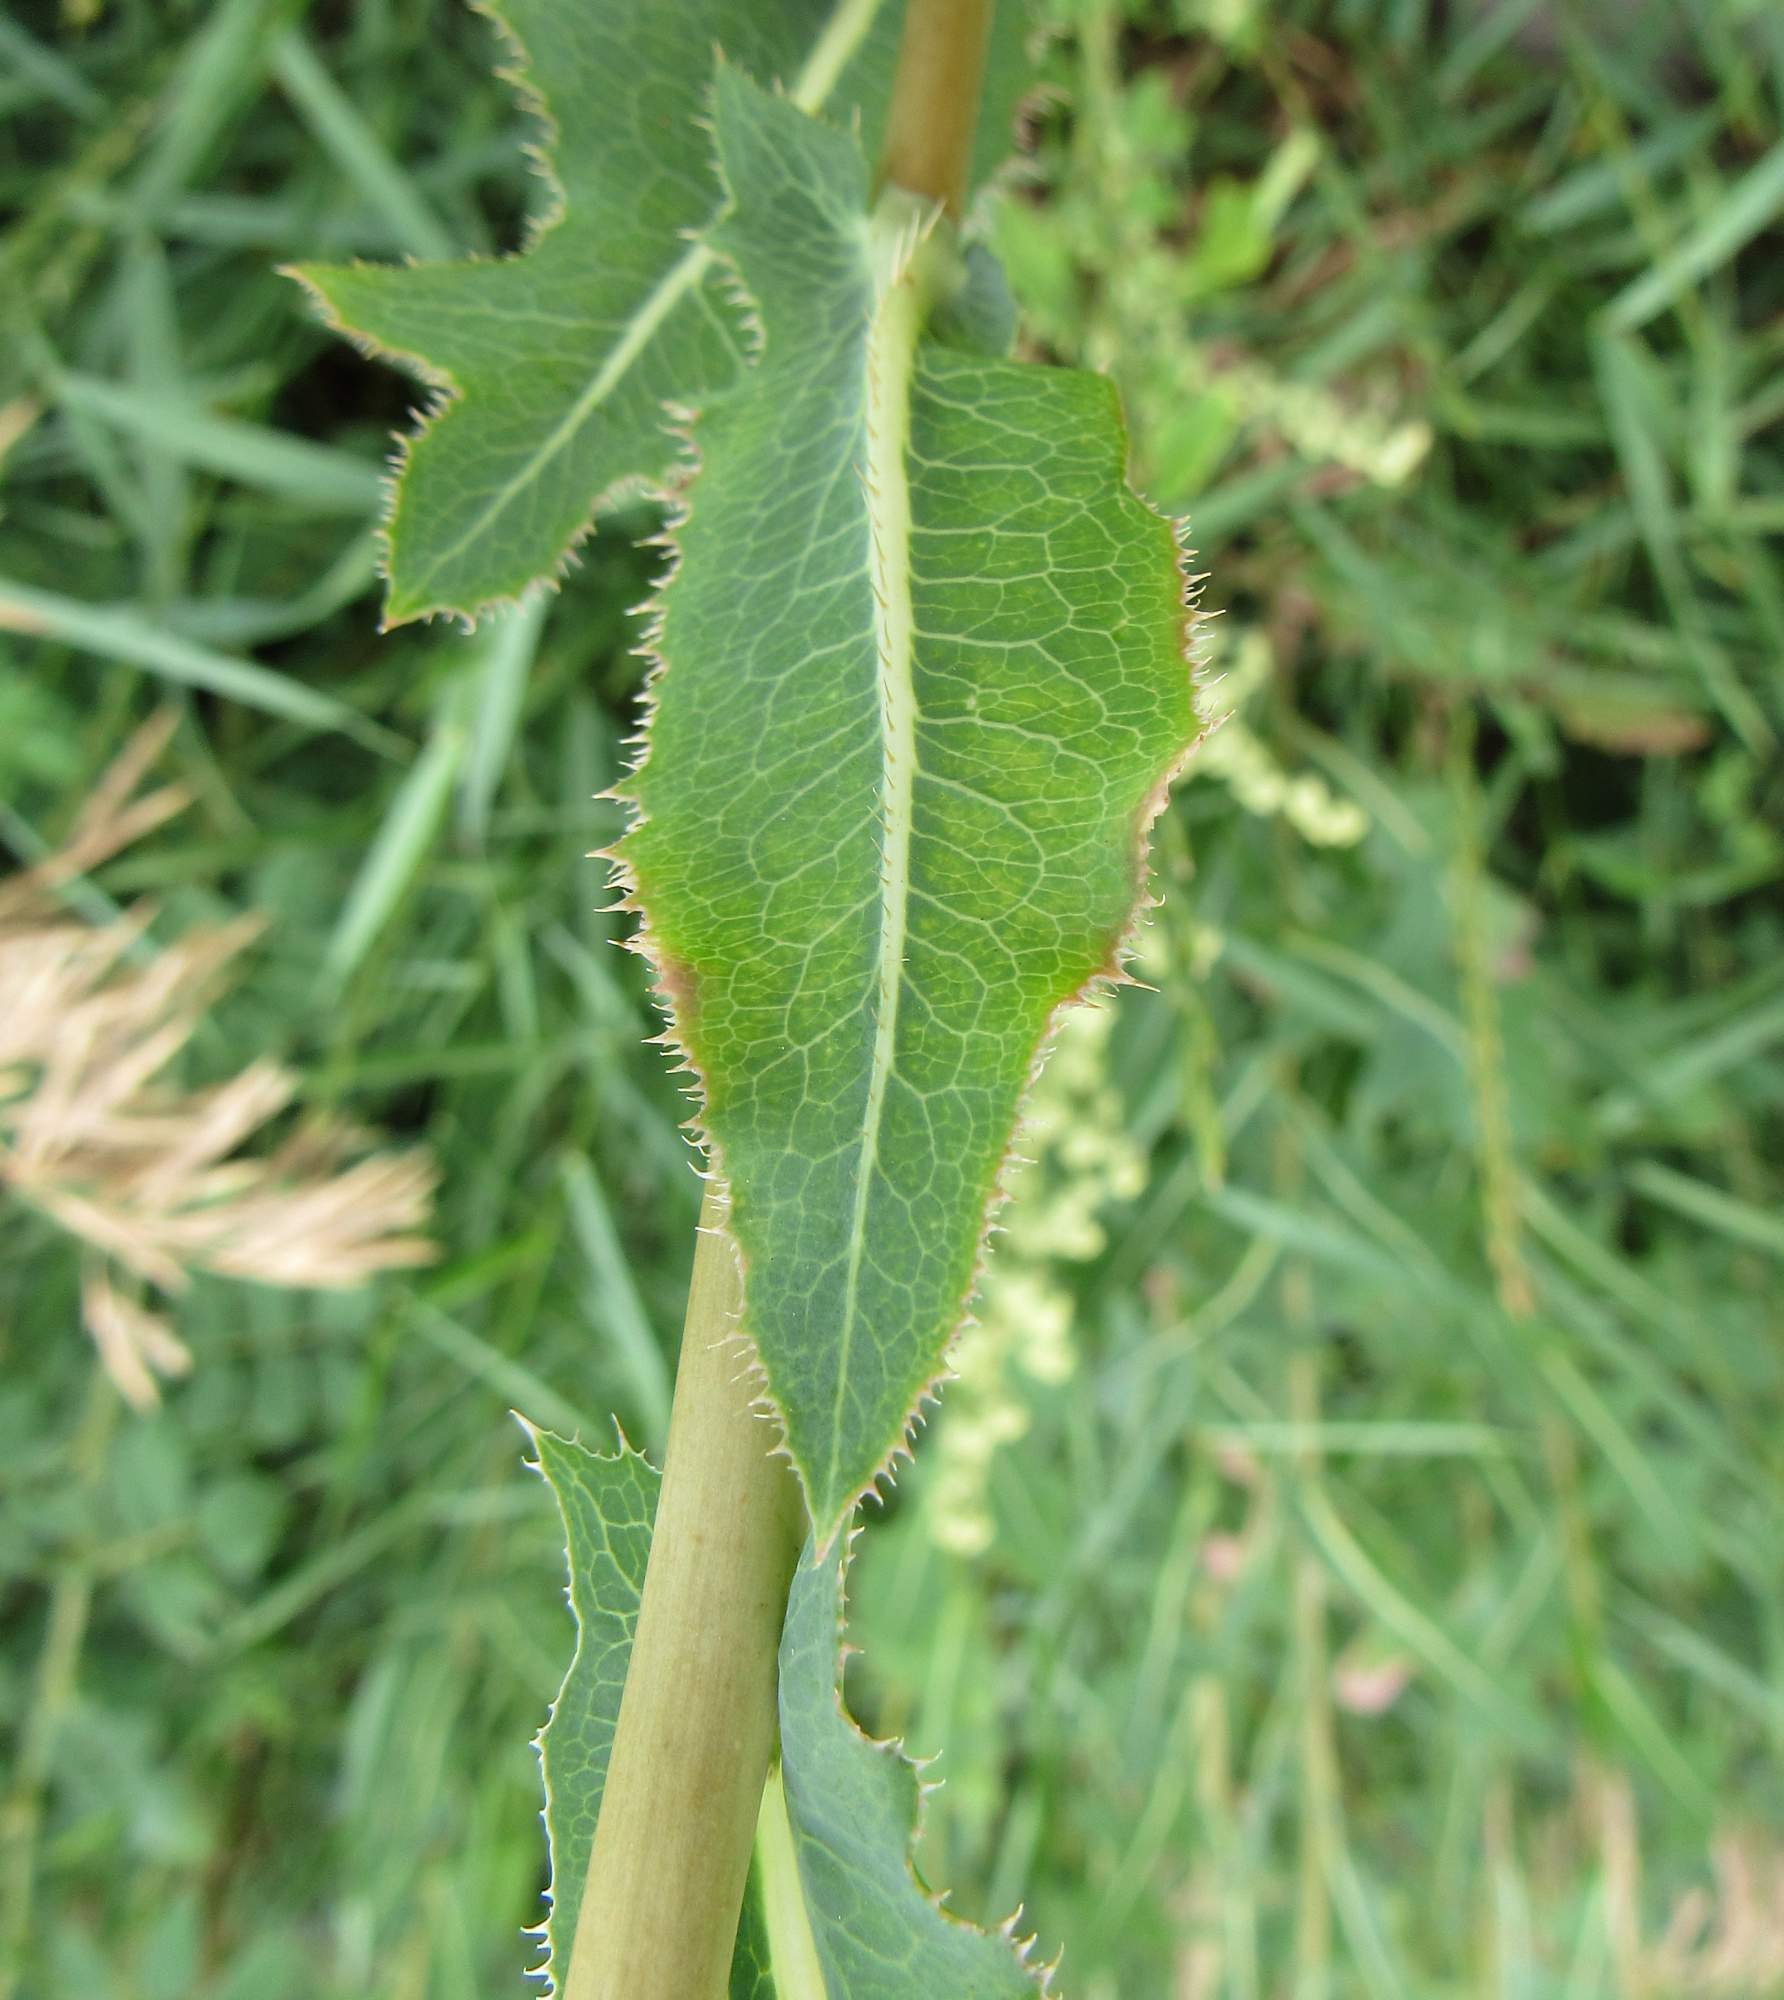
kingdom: Plantae
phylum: Tracheophyta
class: Magnoliopsida
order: Asterales
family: Asteraceae
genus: Lactuca
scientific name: Lactuca serriola
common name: Prickly lettuce
